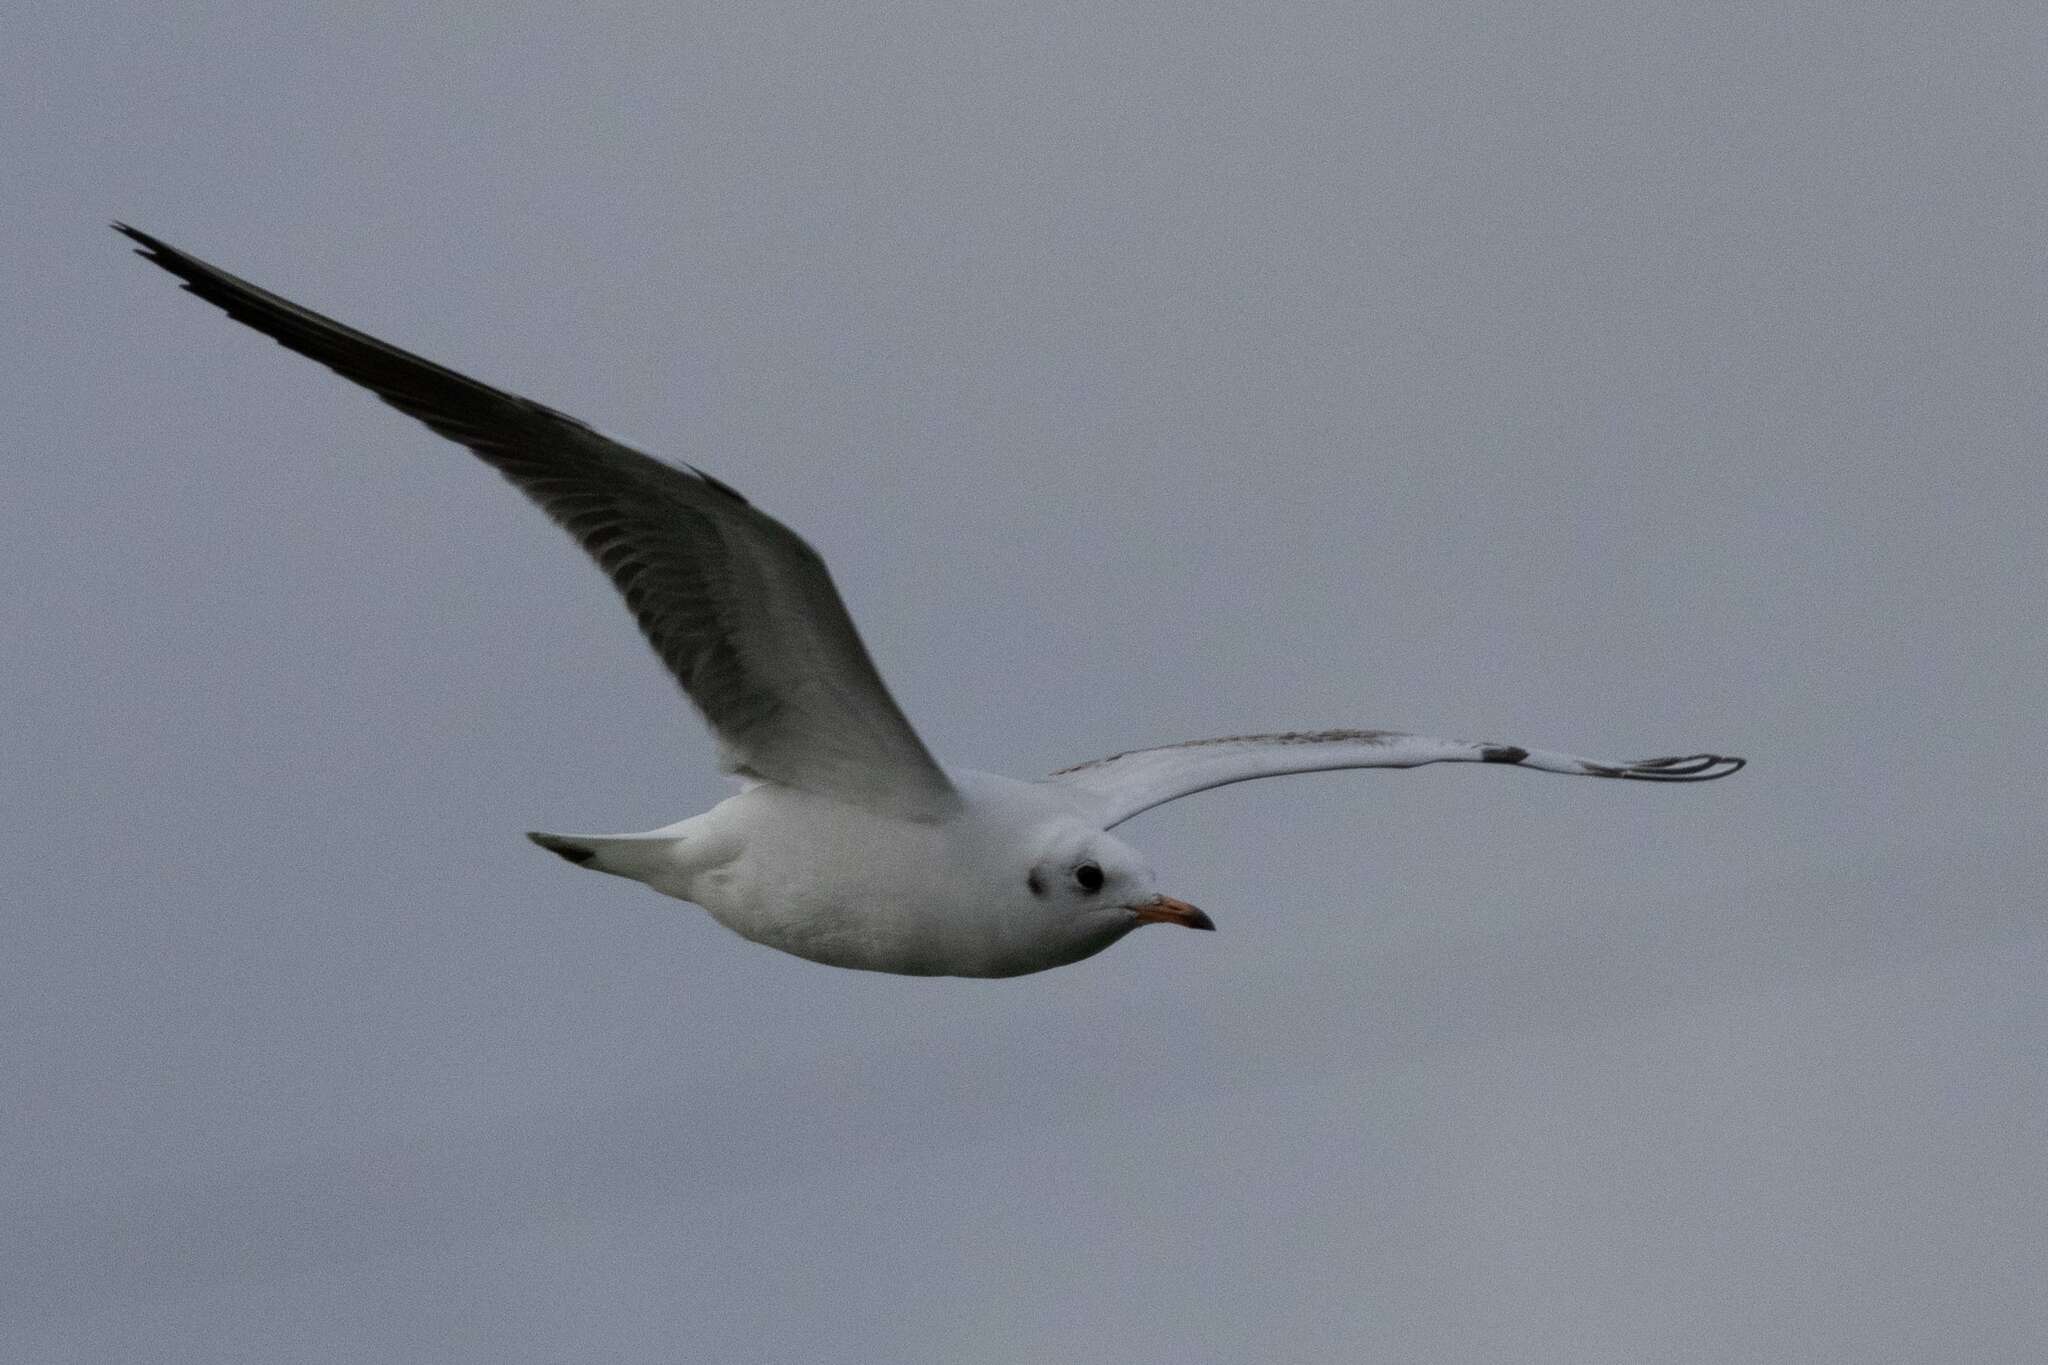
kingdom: Animalia
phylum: Chordata
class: Aves
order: Charadriiformes
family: Laridae
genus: Chroicocephalus
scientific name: Chroicocephalus ridibundus
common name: Black-headed gull
